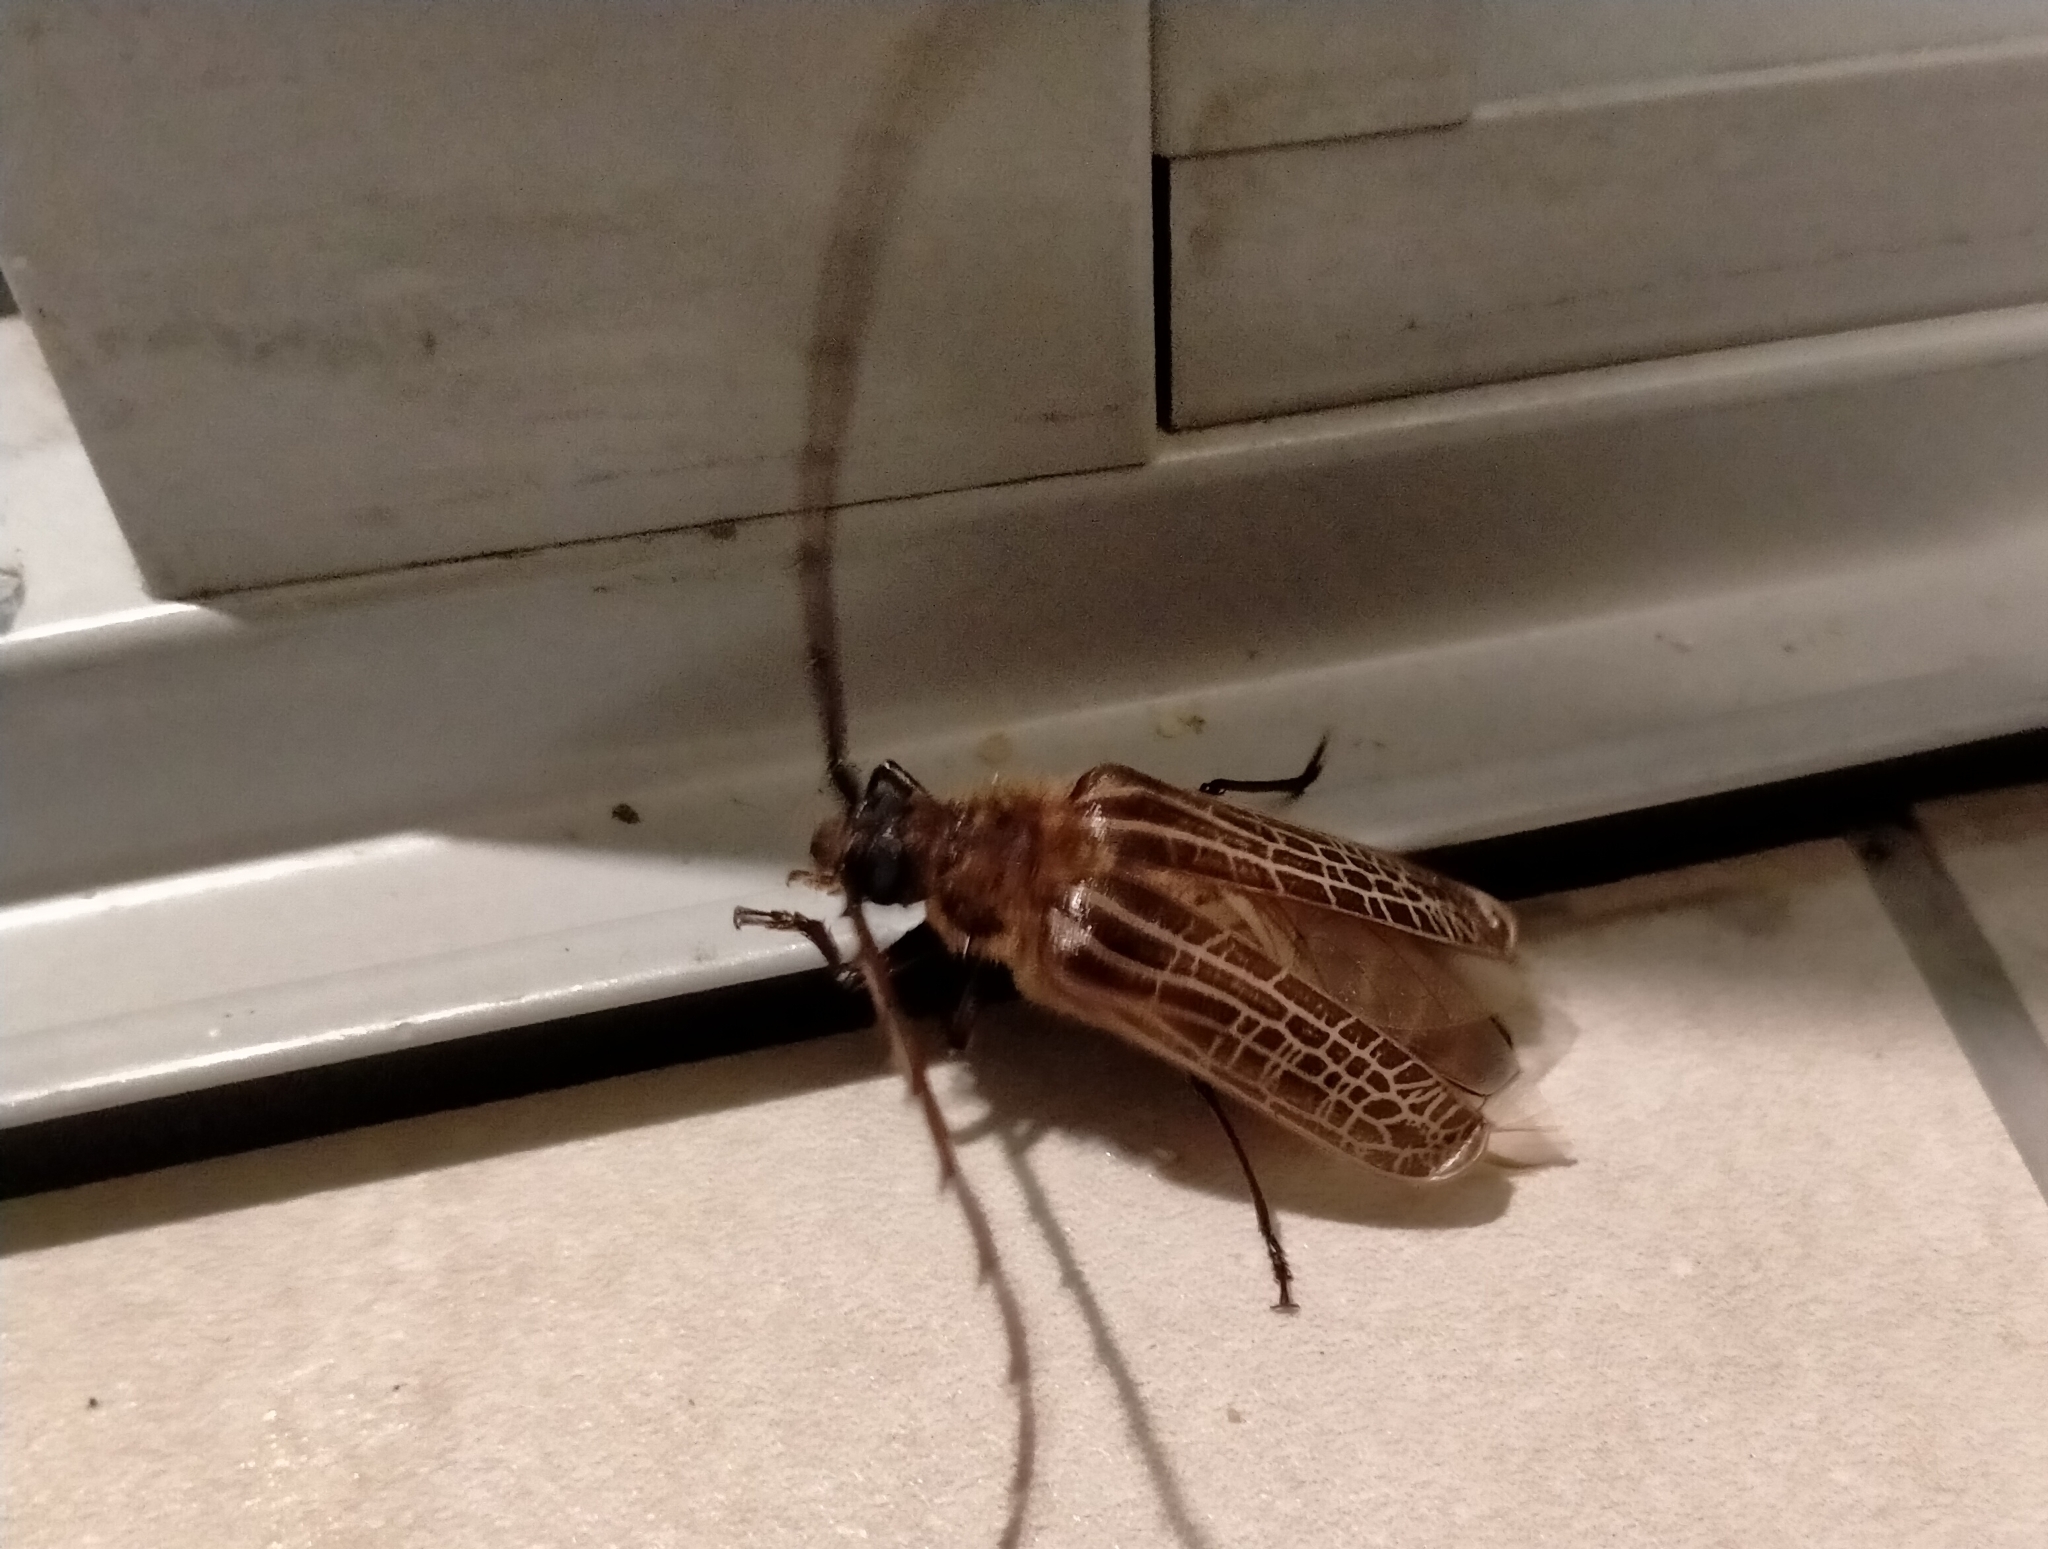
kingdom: Animalia
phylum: Arthropoda
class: Insecta
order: Coleoptera
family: Cerambycidae
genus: Prionoplus
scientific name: Prionoplus reticularis
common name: Huhu beetle
